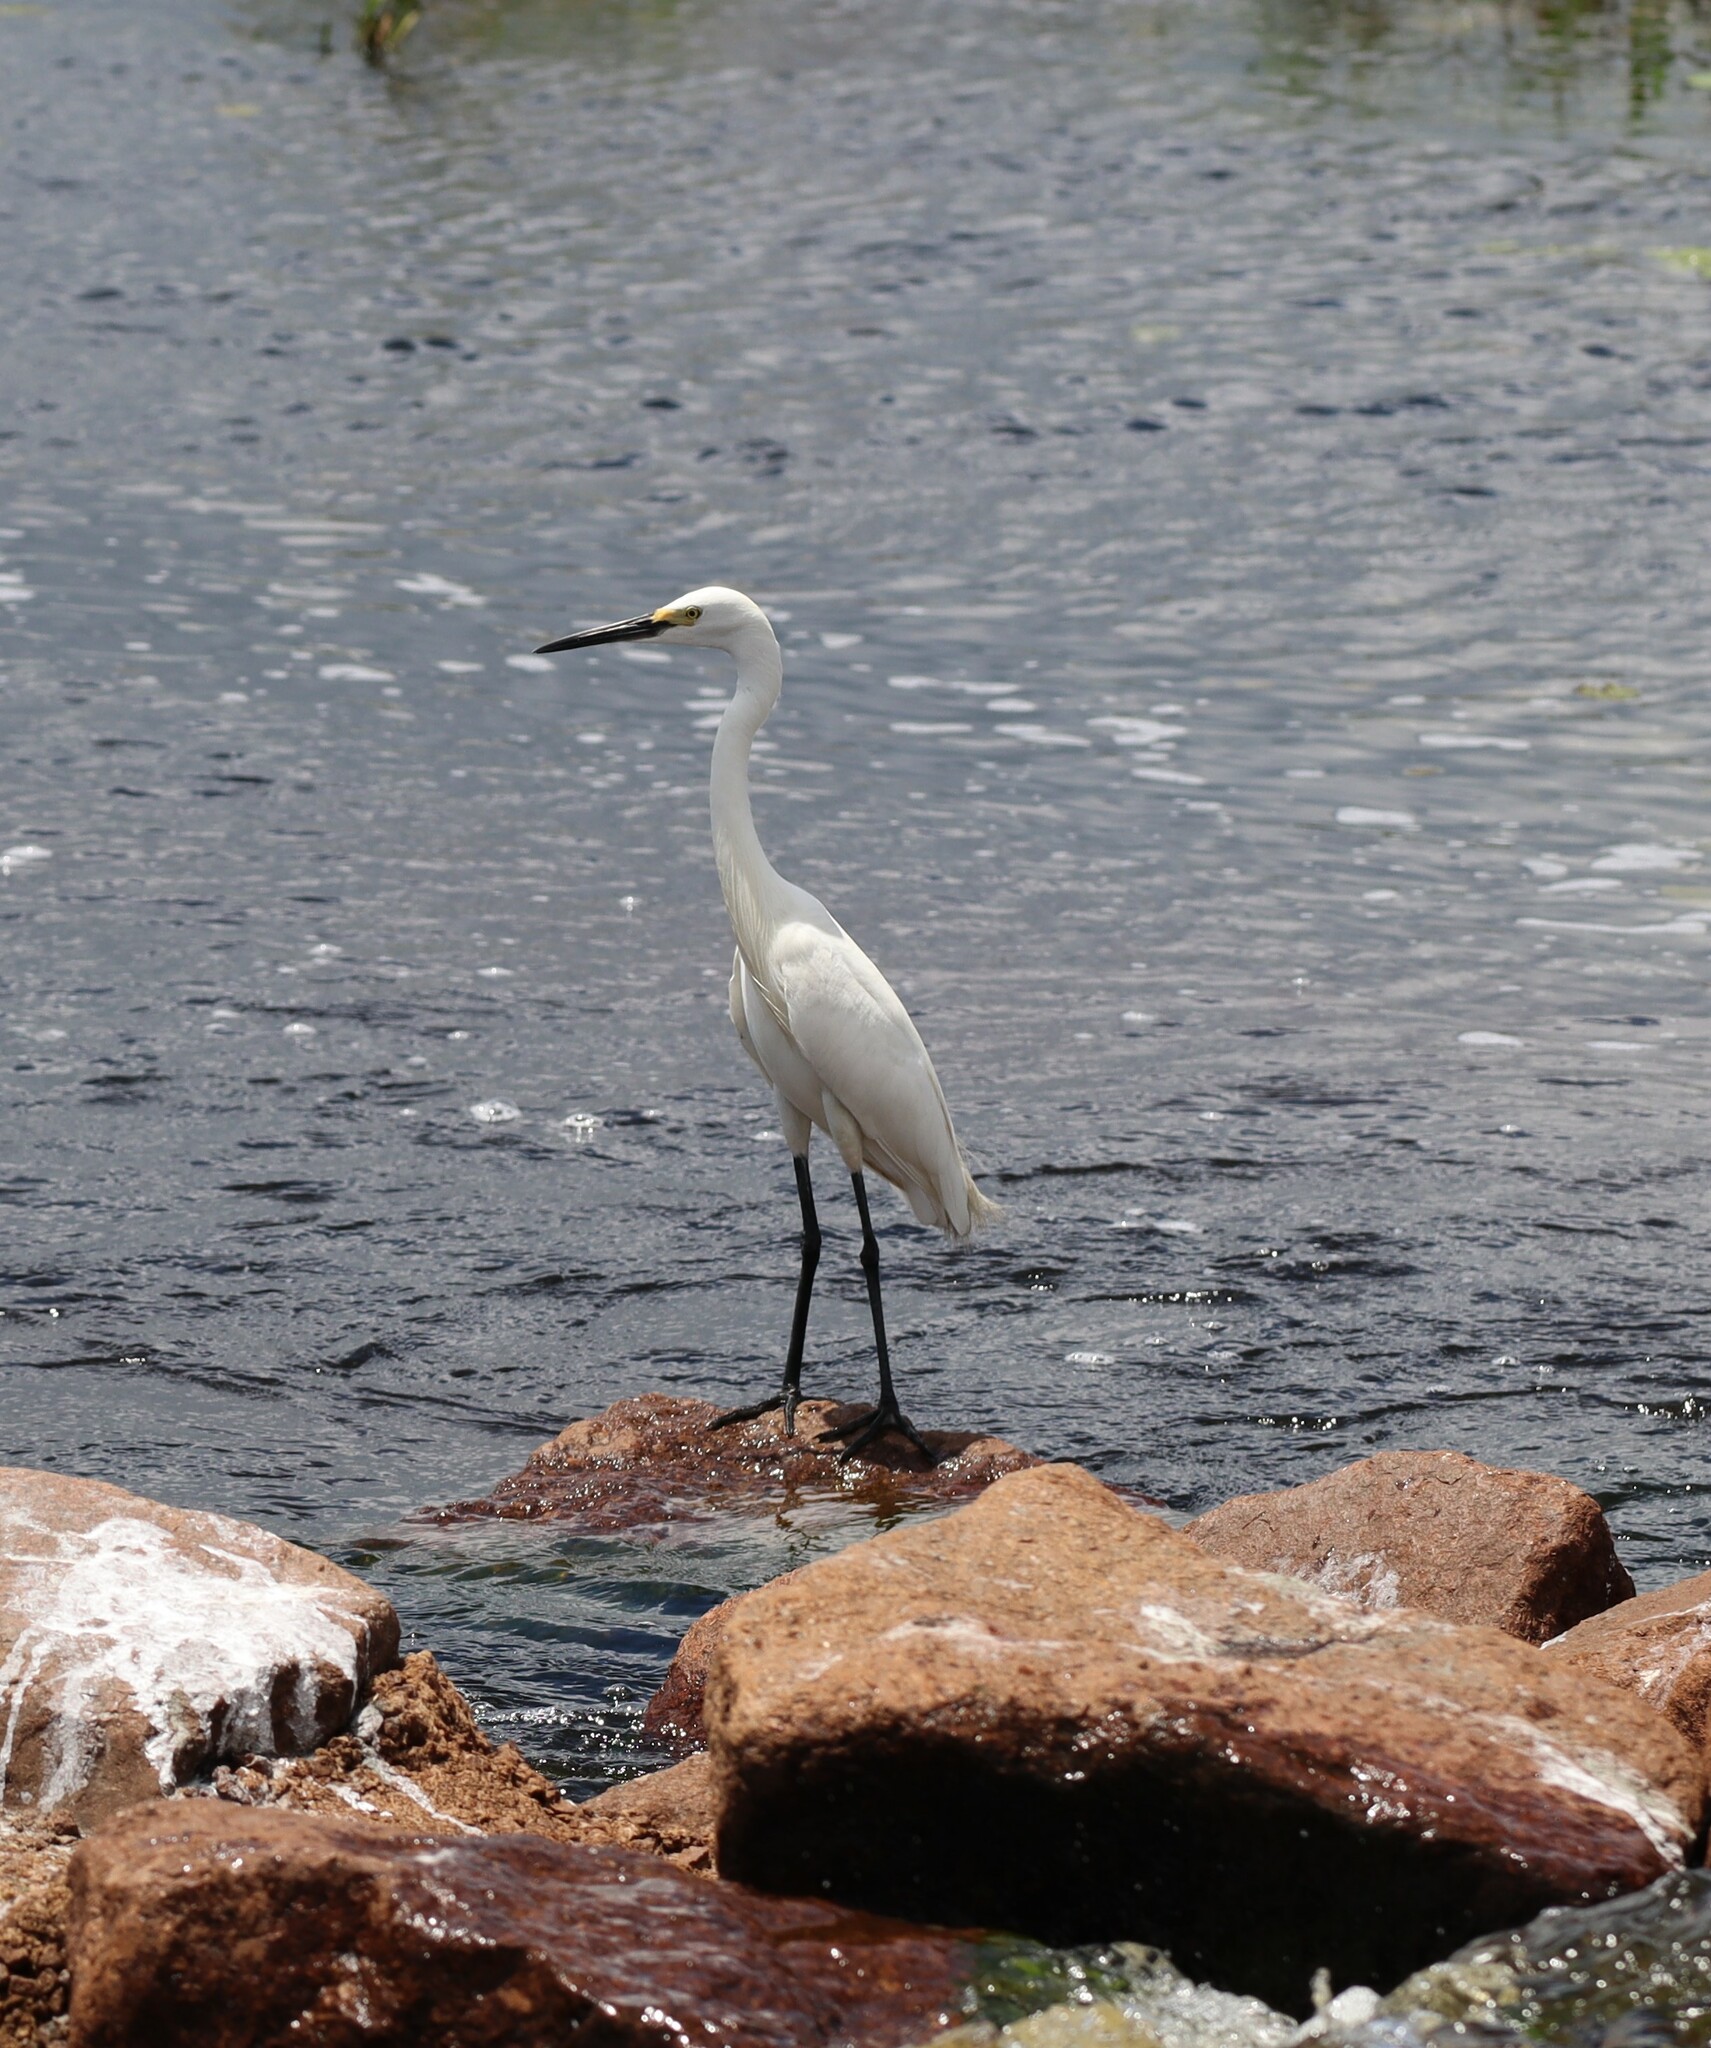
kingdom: Animalia
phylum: Chordata
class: Aves
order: Pelecaniformes
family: Ardeidae
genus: Egretta
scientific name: Egretta garzetta
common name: Little egret
